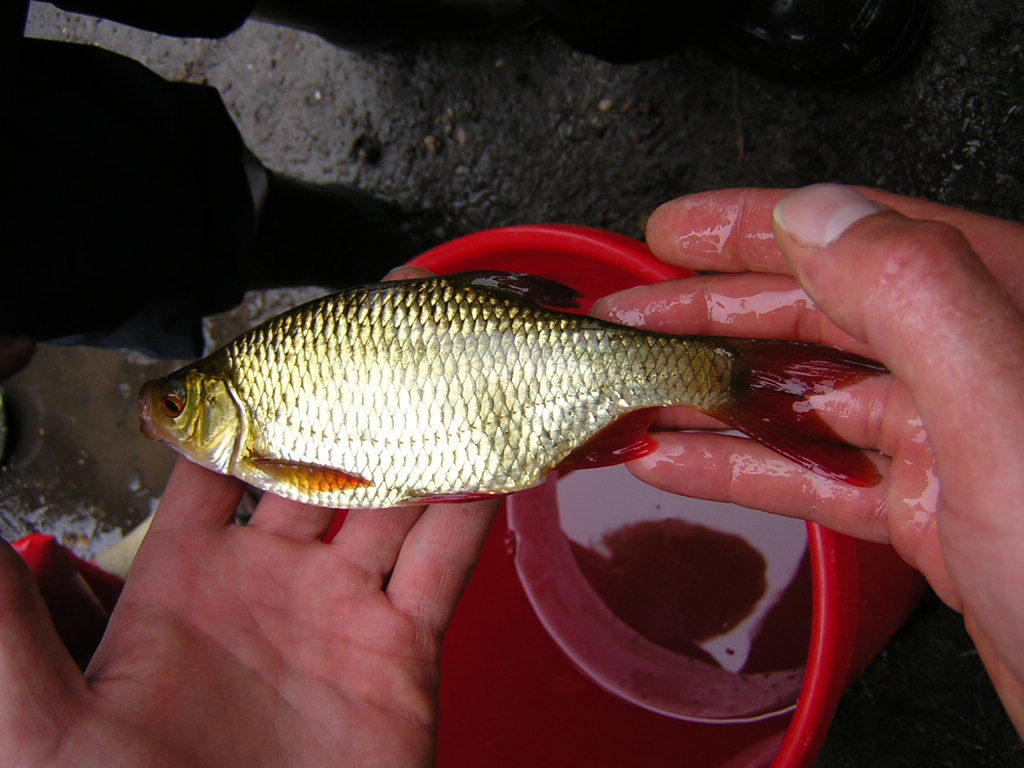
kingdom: Animalia
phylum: Chordata
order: Cypriniformes
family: Cyprinidae
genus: Scardinius
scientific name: Scardinius erythrophthalmus
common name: Rudd
